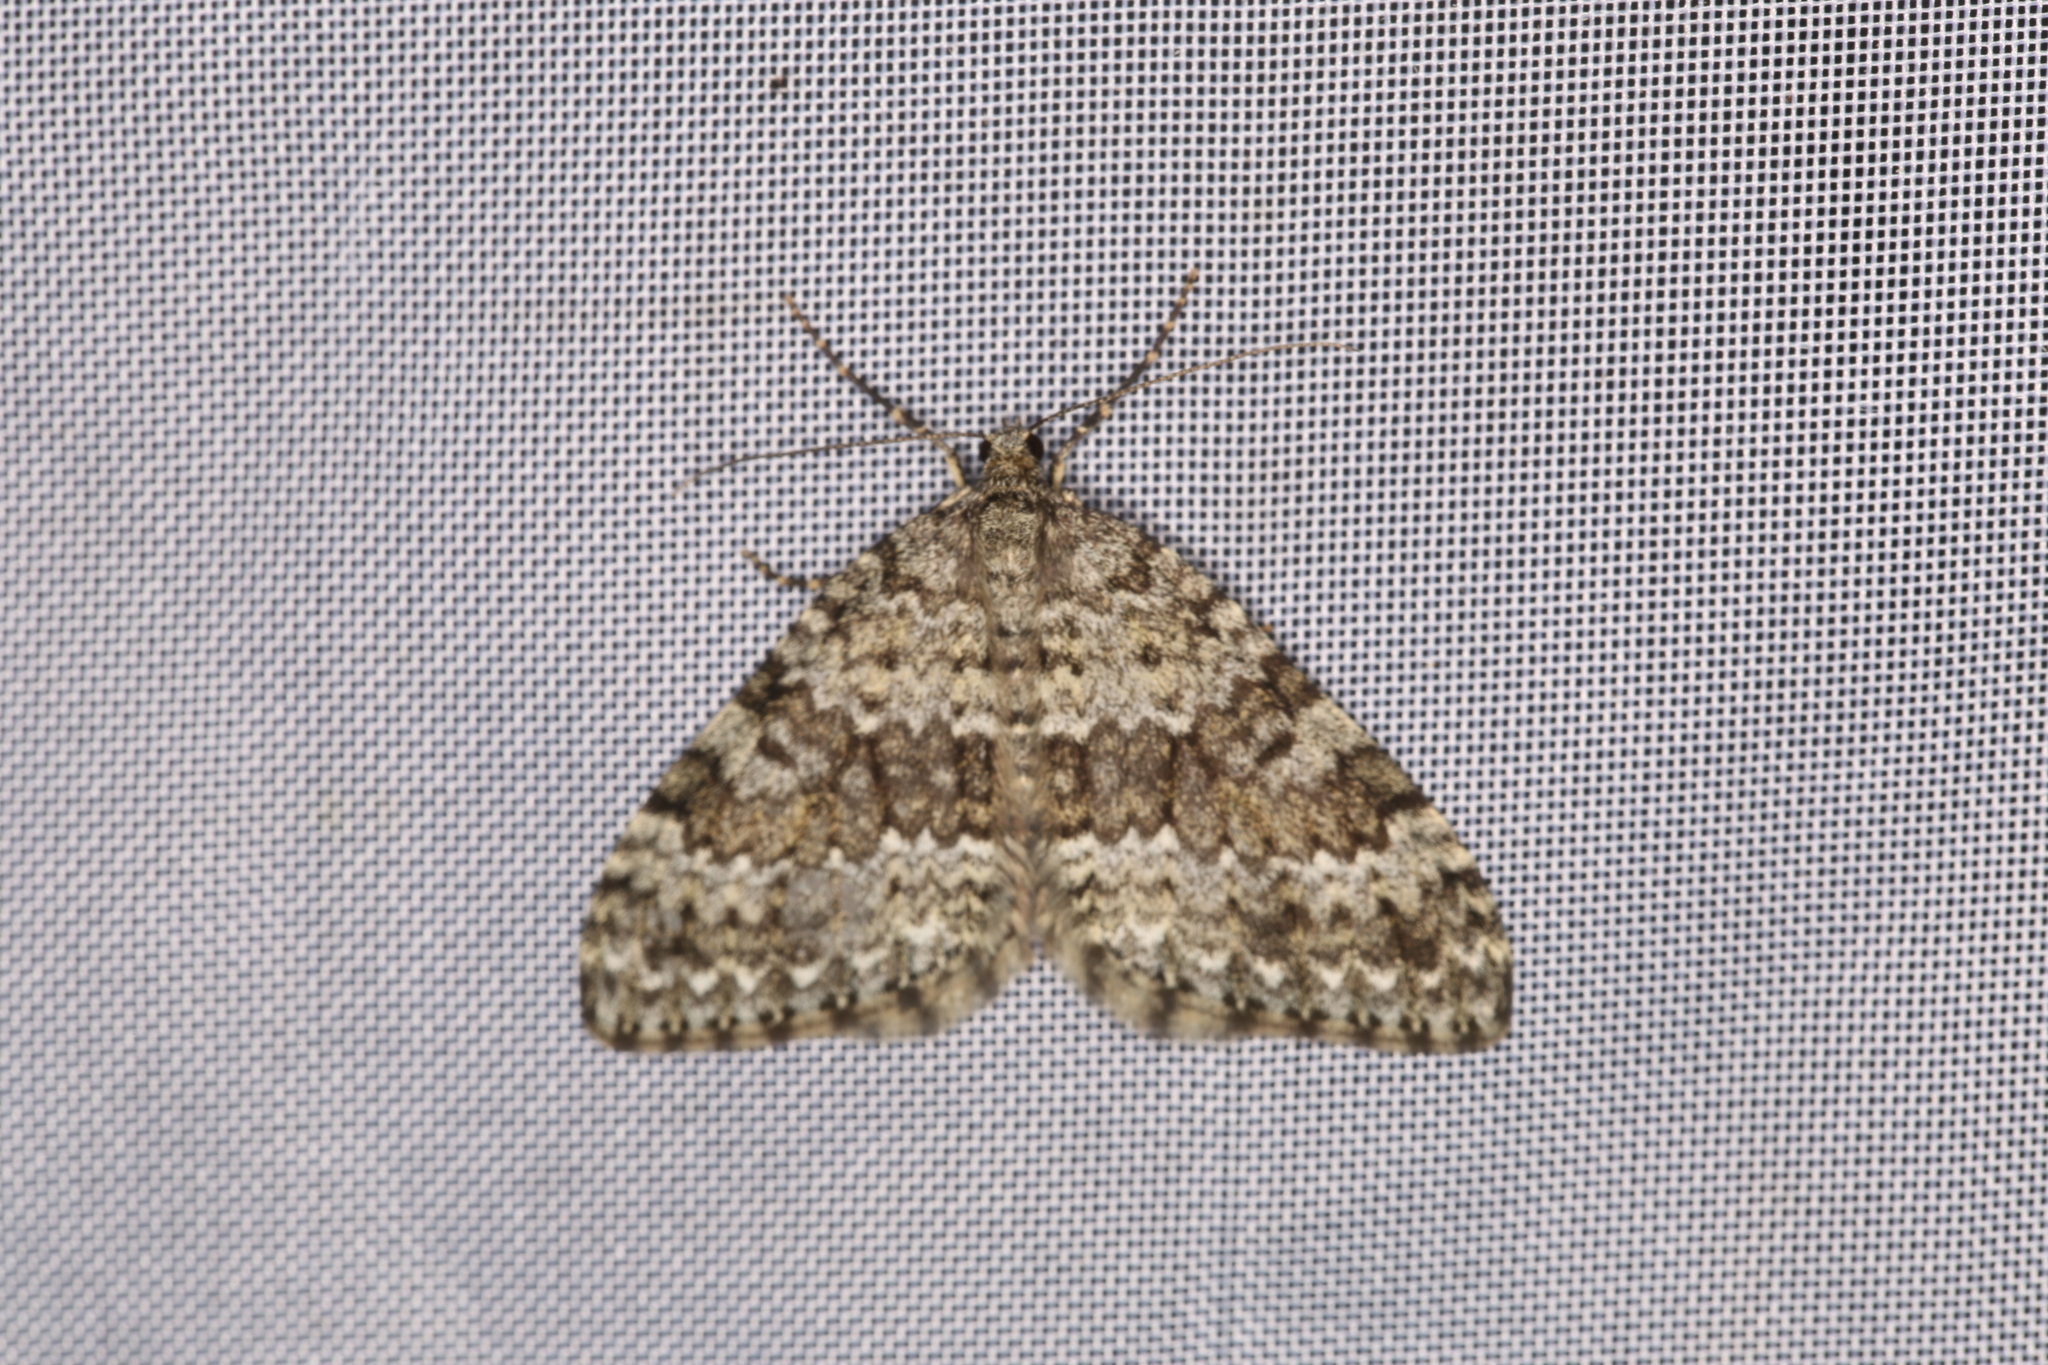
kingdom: Animalia
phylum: Arthropoda
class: Insecta
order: Lepidoptera
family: Geometridae
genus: Entephria
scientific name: Entephria caesiata
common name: Grey mountain moth
